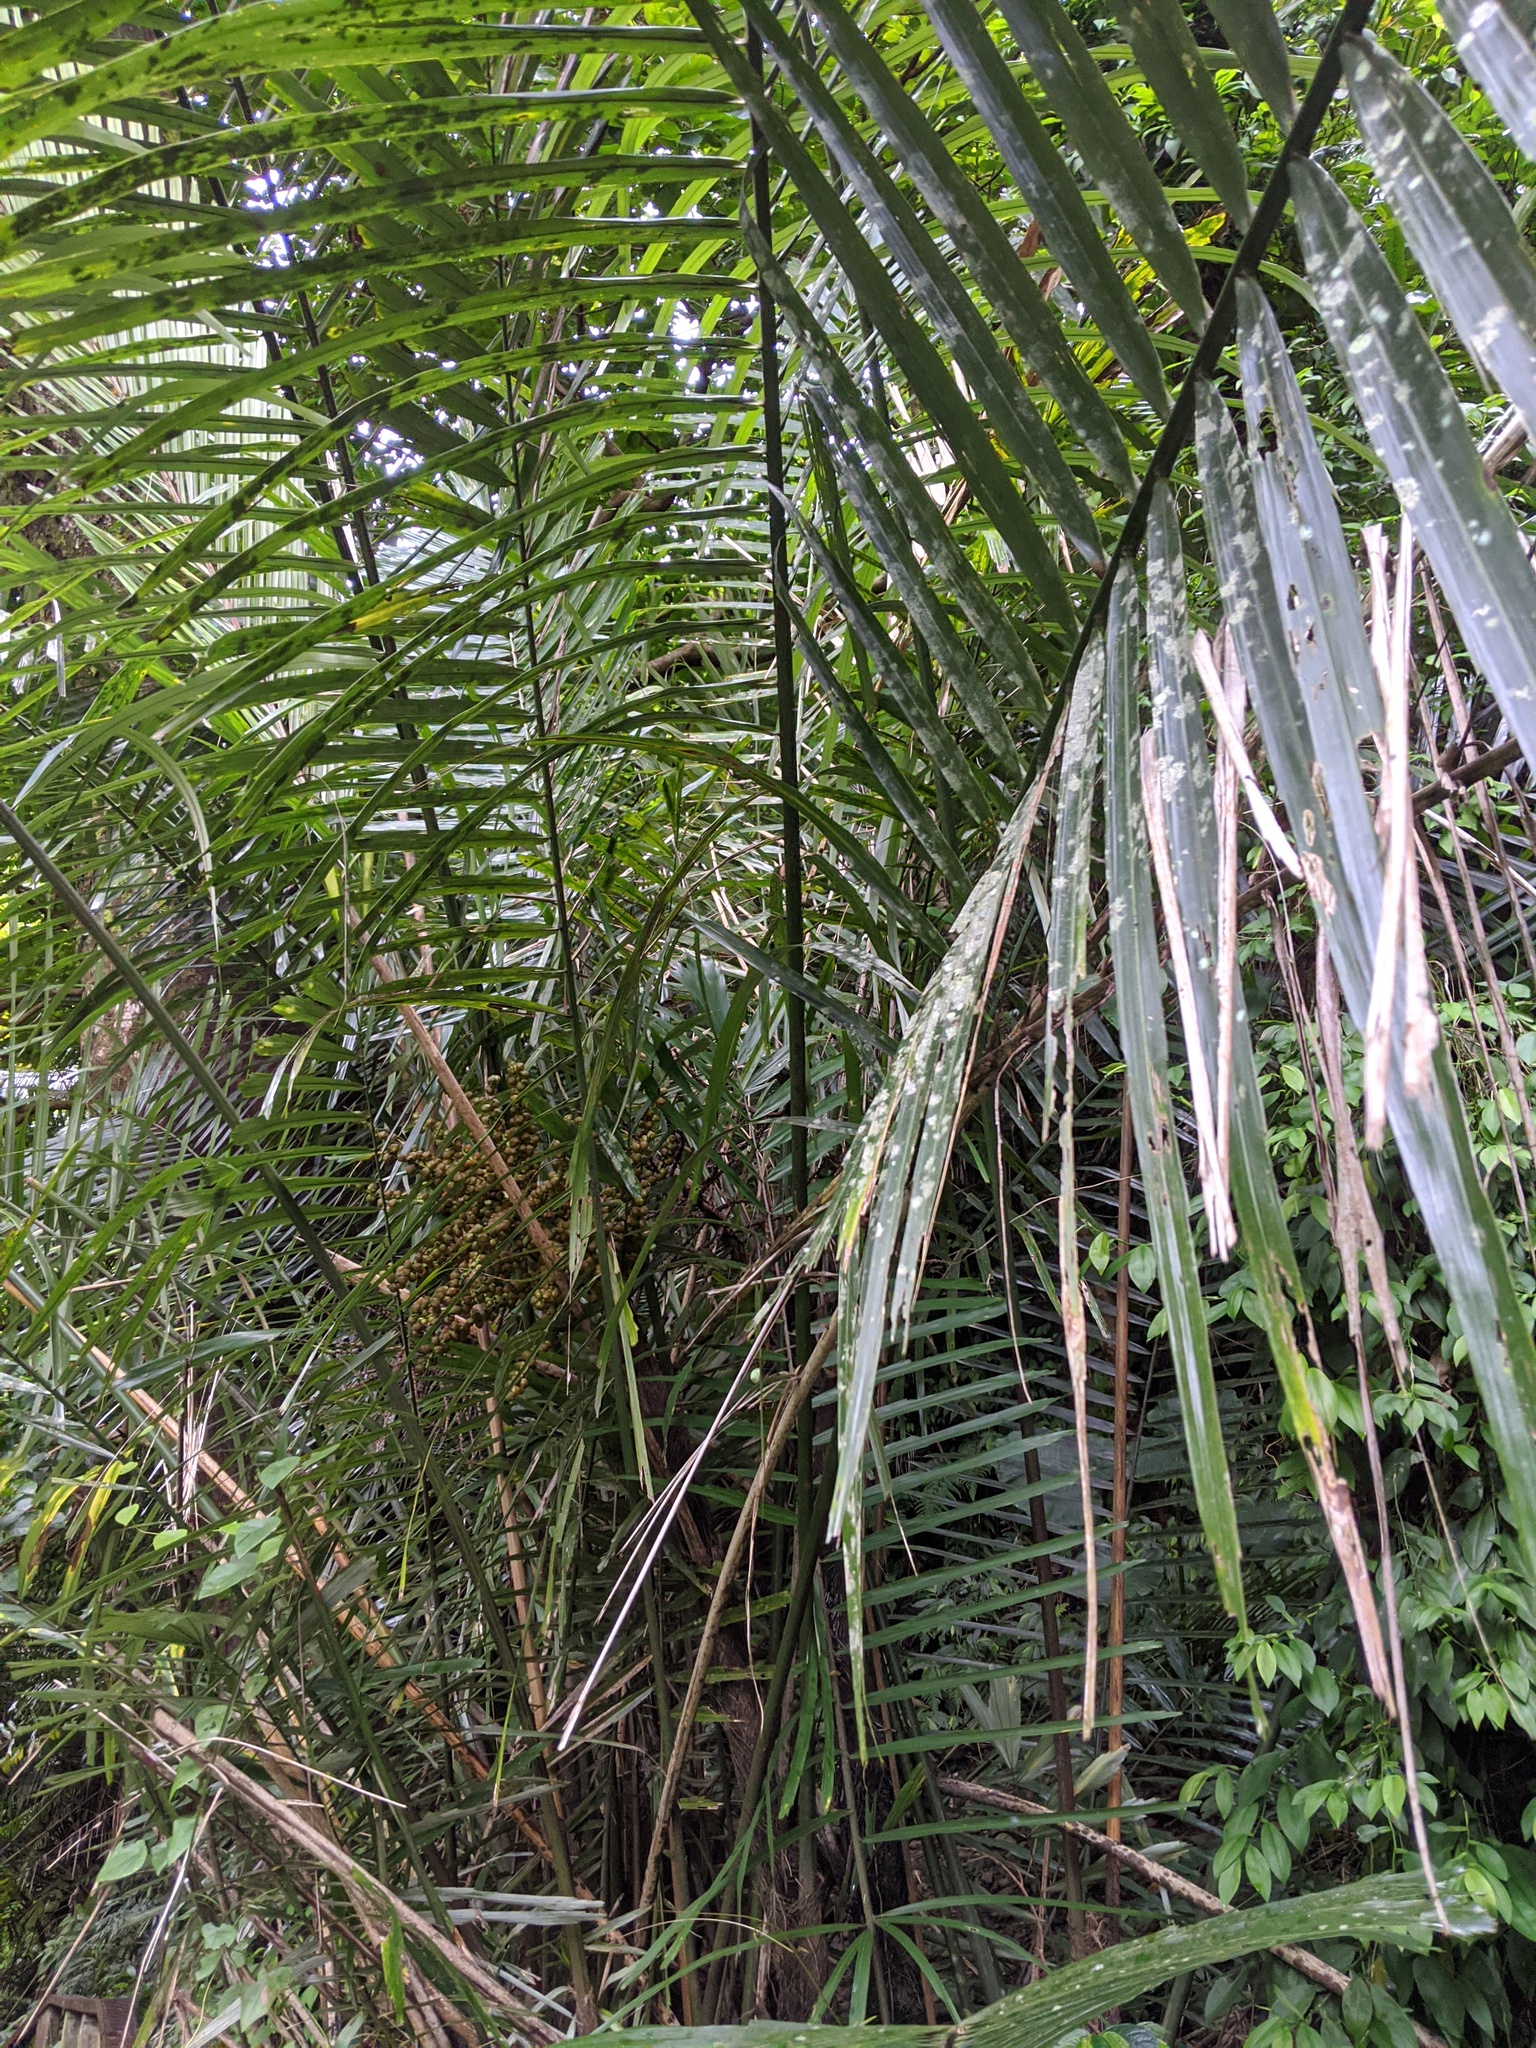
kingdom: Plantae
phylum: Tracheophyta
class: Liliopsida
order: Arecales
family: Arecaceae
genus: Arenga
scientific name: Arenga engleri
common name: Formosan sugar palm
